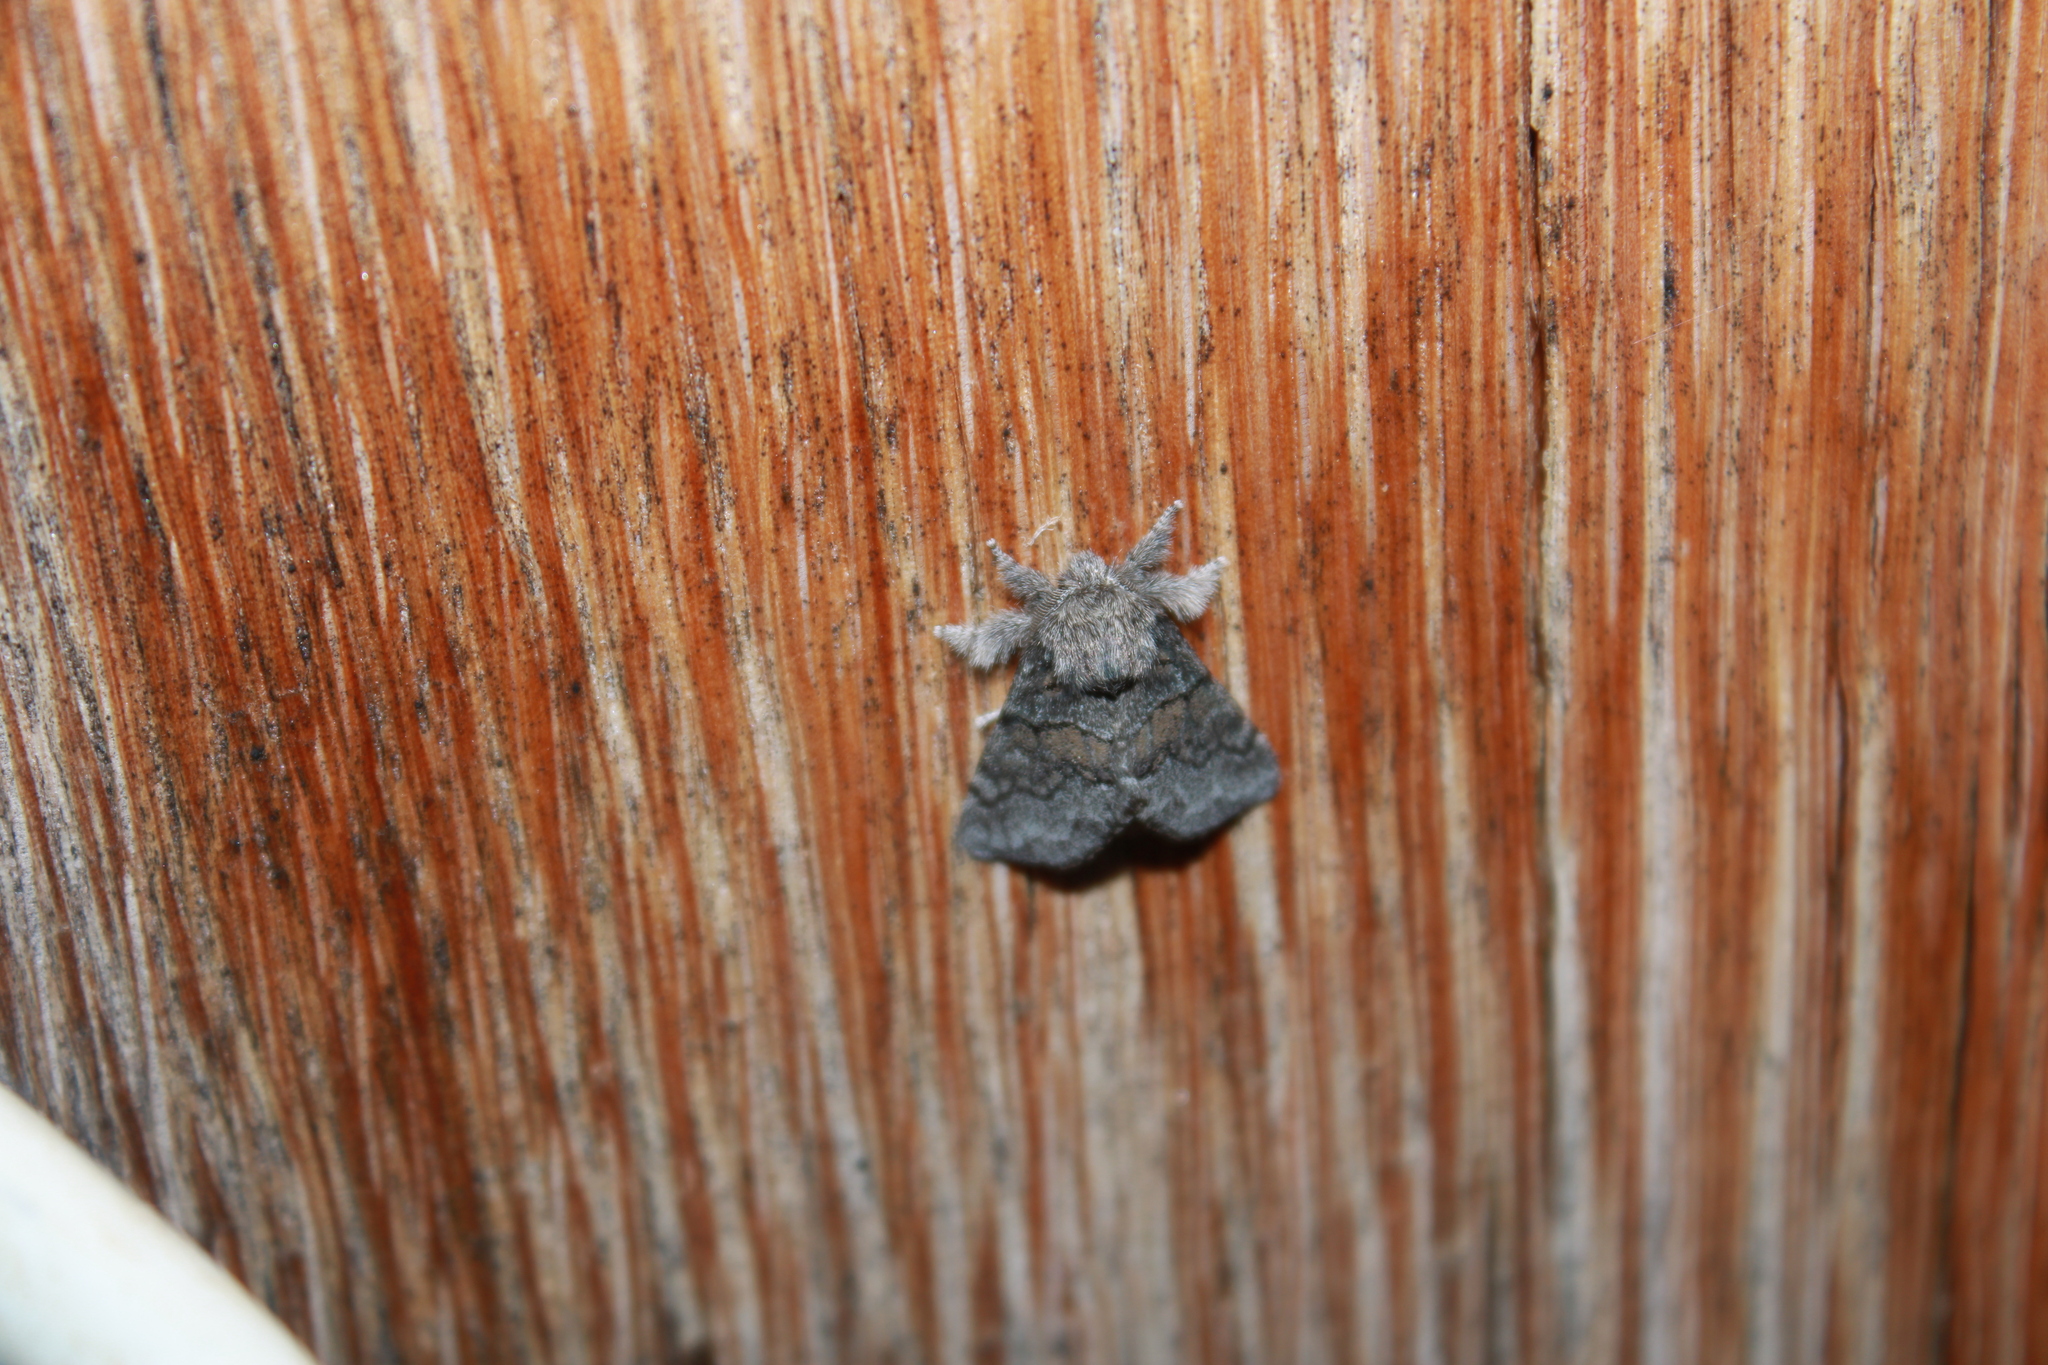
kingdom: Animalia
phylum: Arthropoda
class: Insecta
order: Lepidoptera
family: Notodontidae
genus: Gluphisia
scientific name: Gluphisia septentrionis
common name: Common gluphisia
